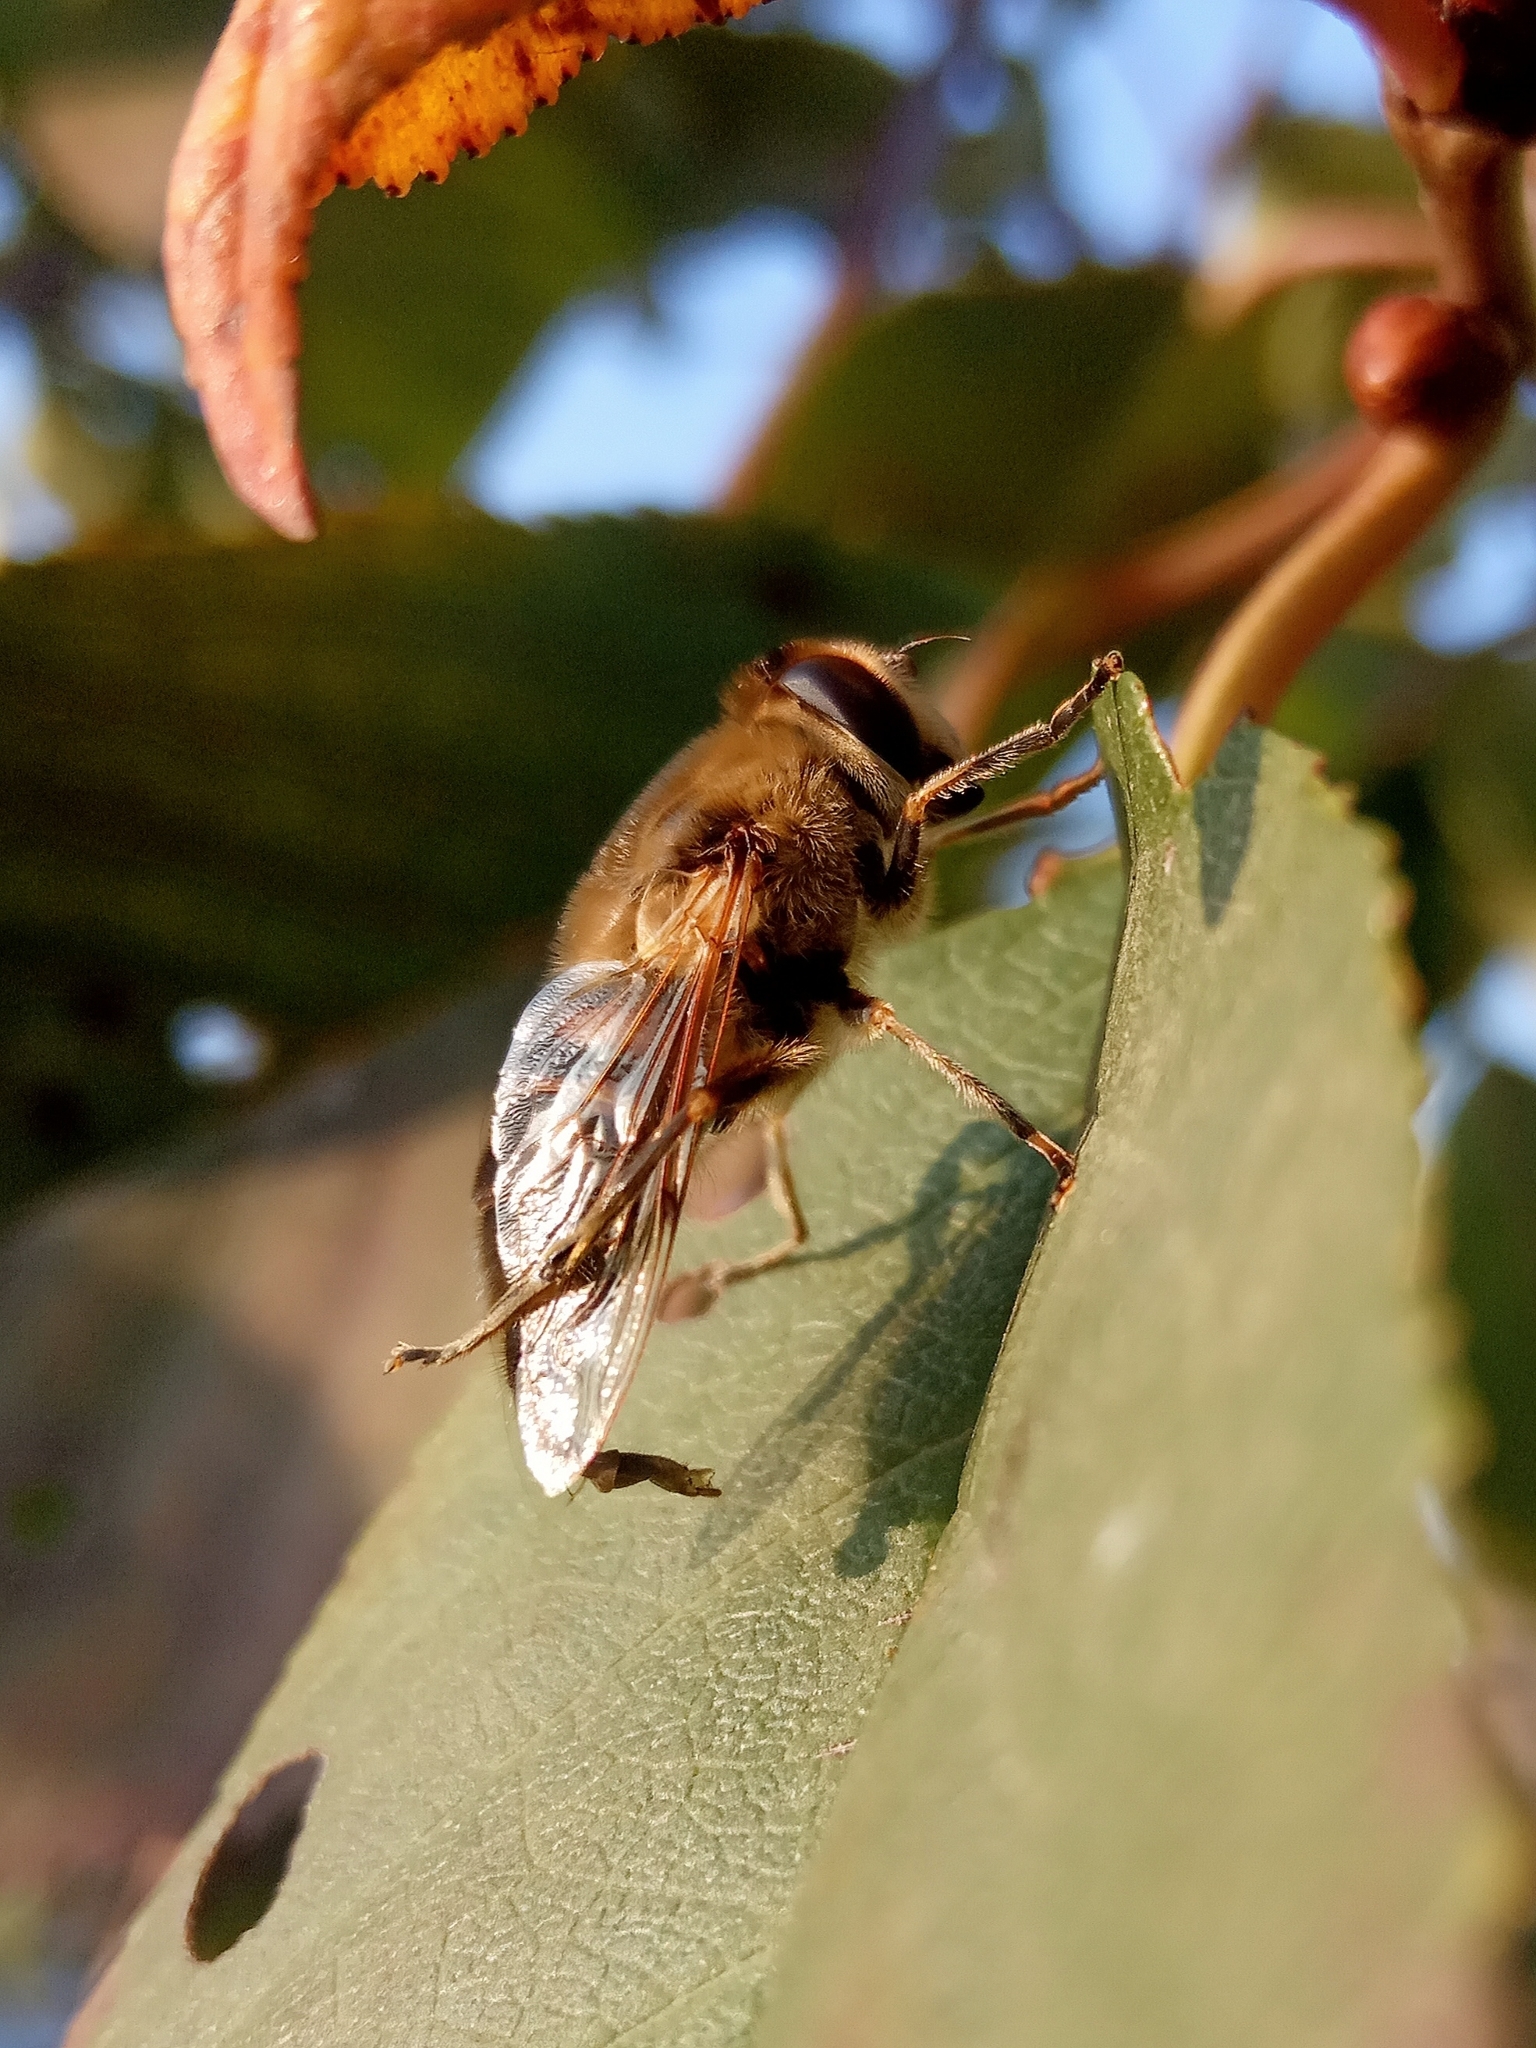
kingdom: Animalia
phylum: Arthropoda
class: Insecta
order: Diptera
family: Syrphidae
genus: Eristalis
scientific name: Eristalis tenax
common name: Drone fly
